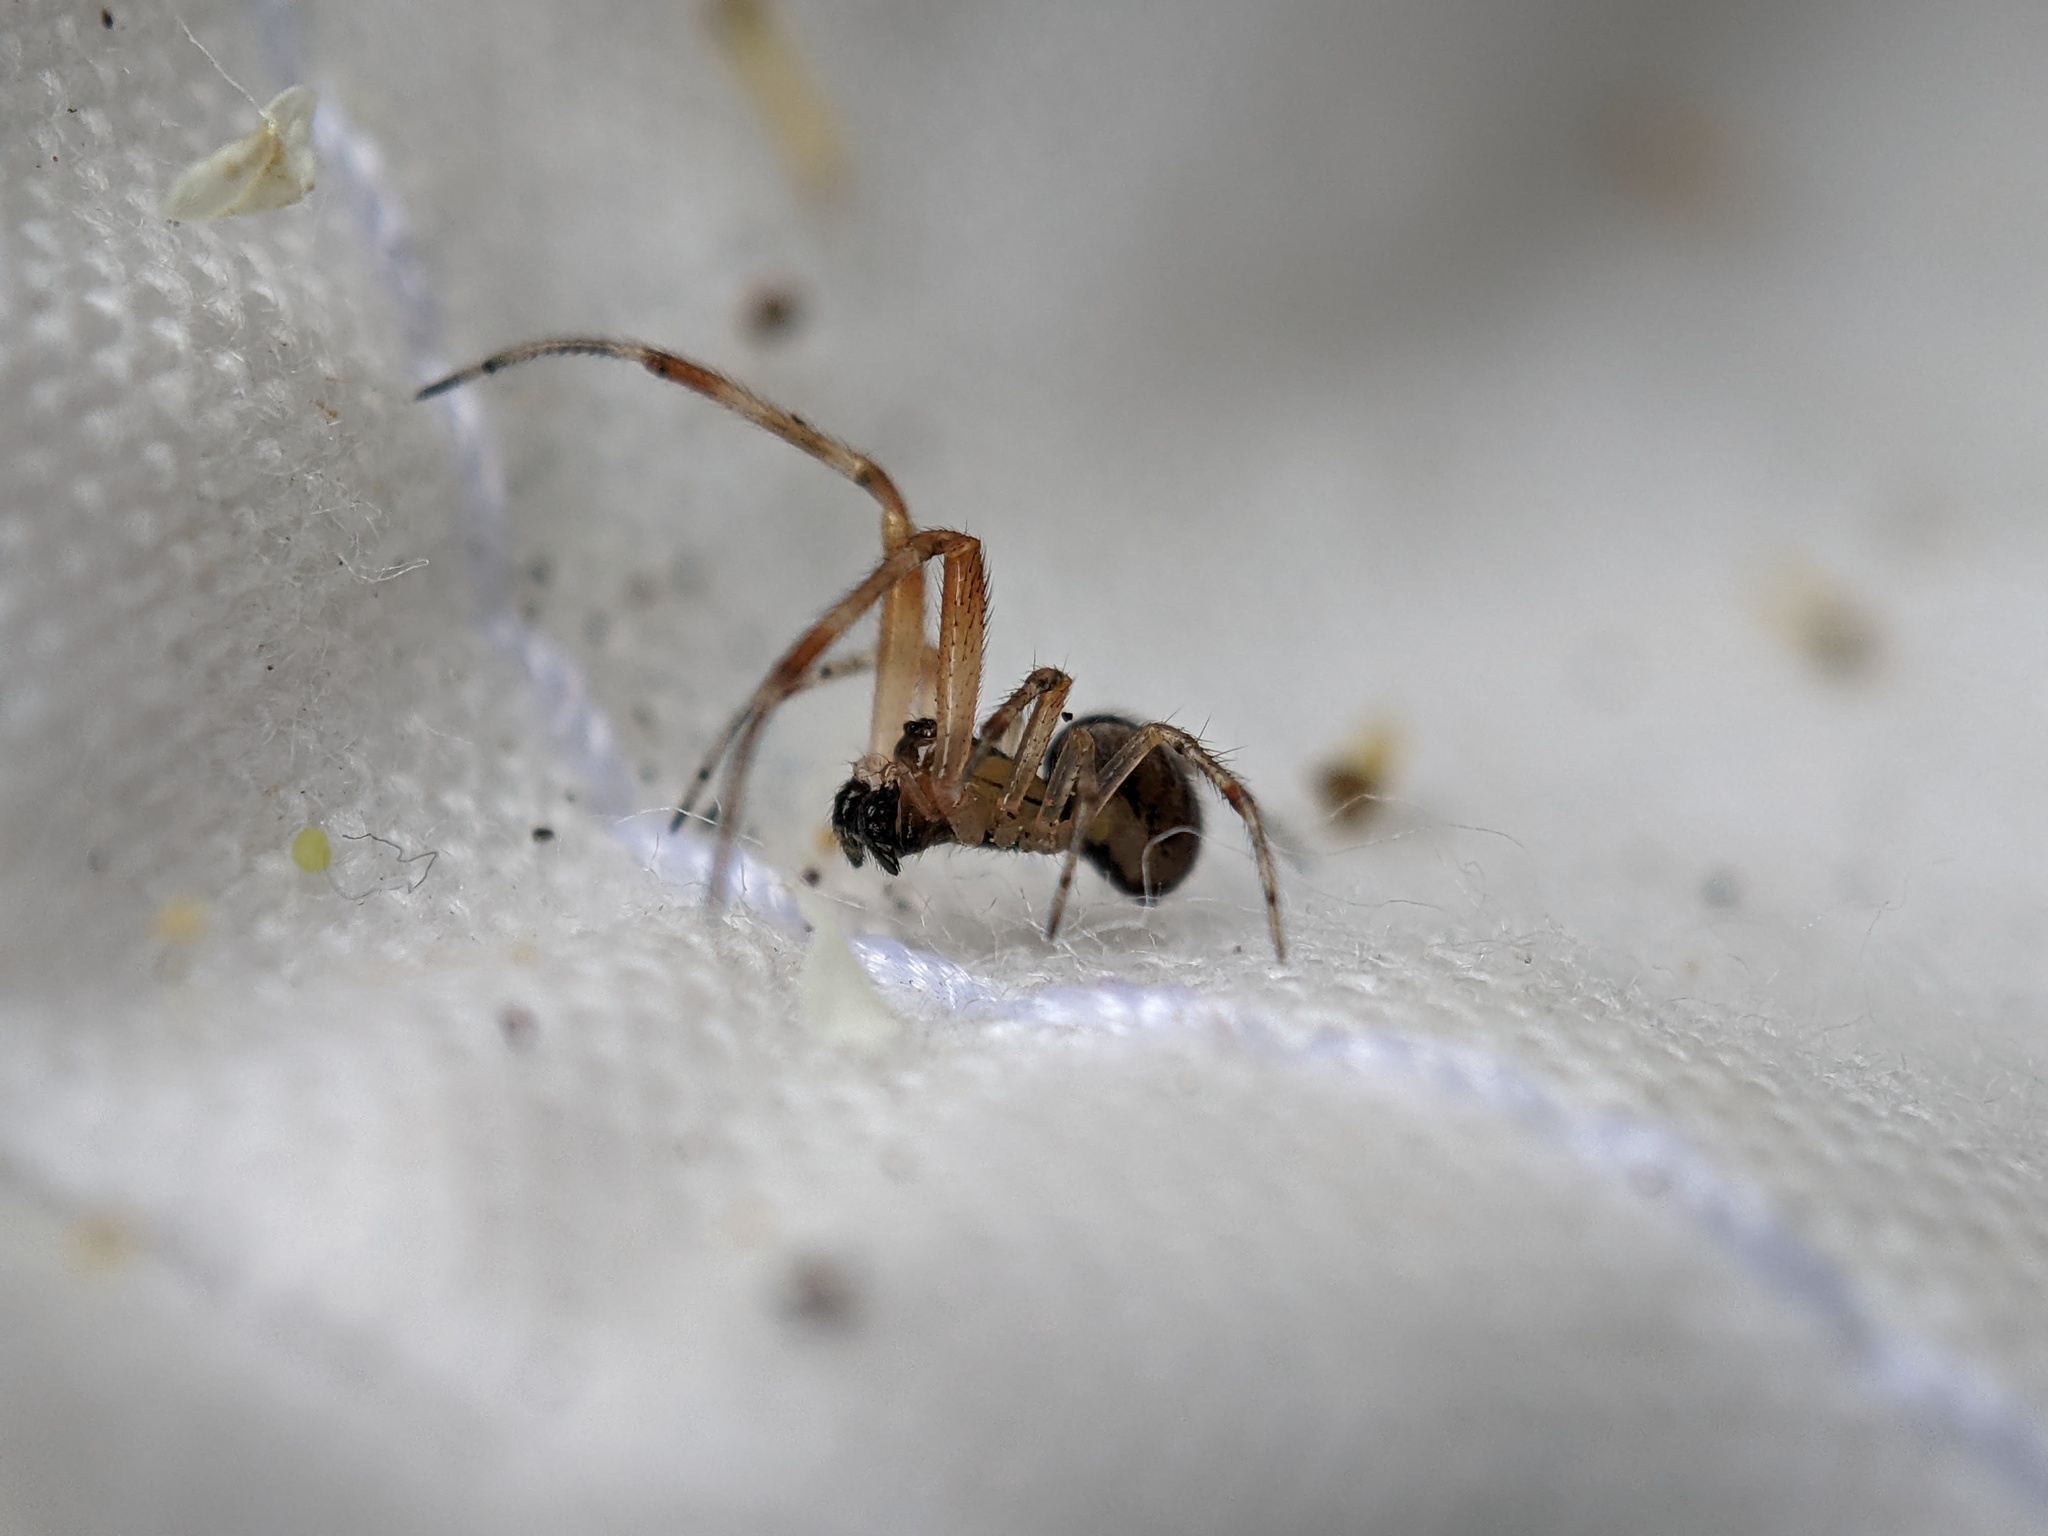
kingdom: Animalia
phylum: Arthropoda
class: Arachnida
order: Araneae
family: Theridiidae
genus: Anelosimus
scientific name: Anelosimus vittatus
